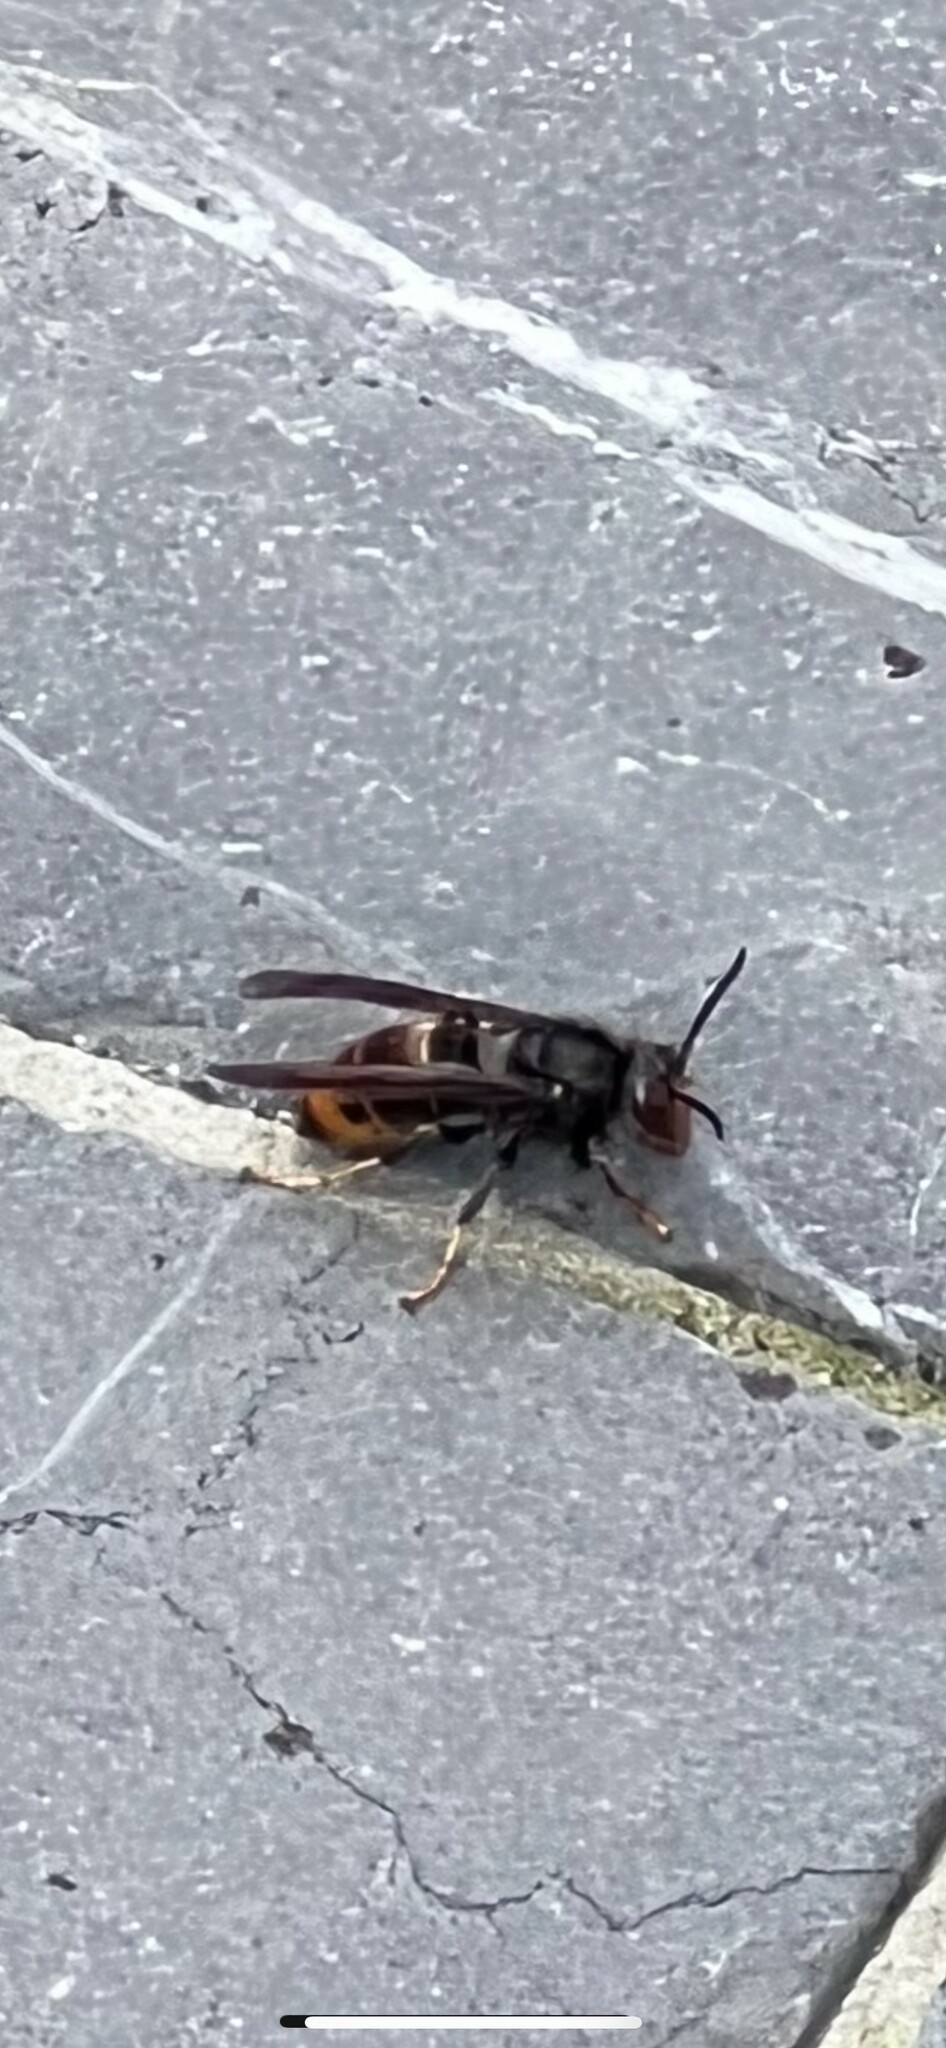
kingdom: Animalia
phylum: Arthropoda
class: Insecta
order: Hymenoptera
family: Vespidae
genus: Vespa
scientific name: Vespa velutina
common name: Asian hornet
